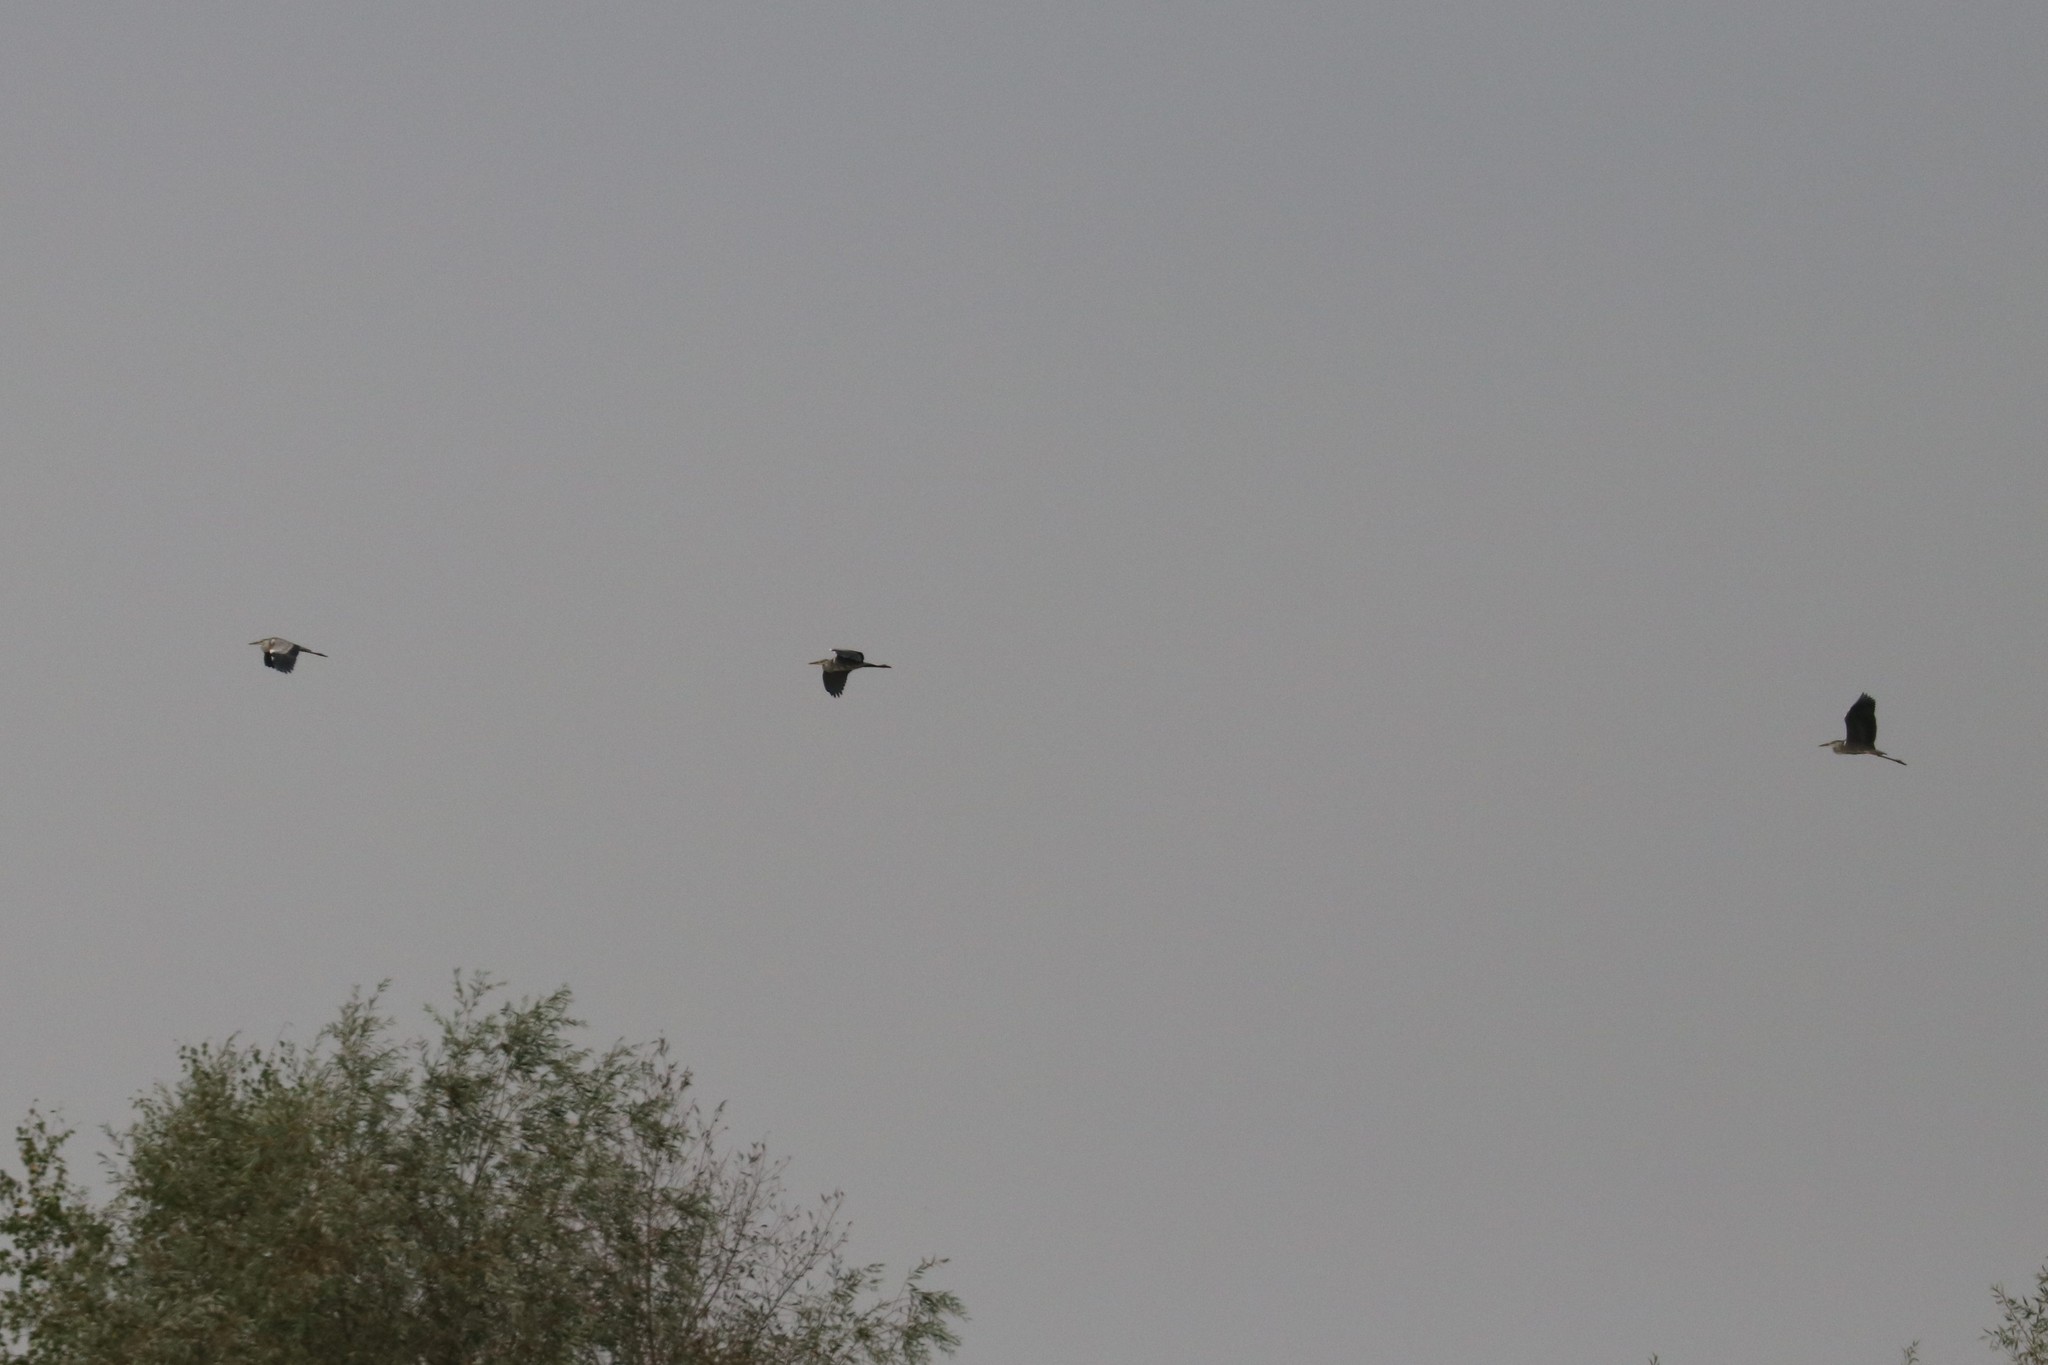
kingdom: Animalia
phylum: Chordata
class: Aves
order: Pelecaniformes
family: Ardeidae
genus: Ardea
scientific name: Ardea cinerea
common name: Grey heron
